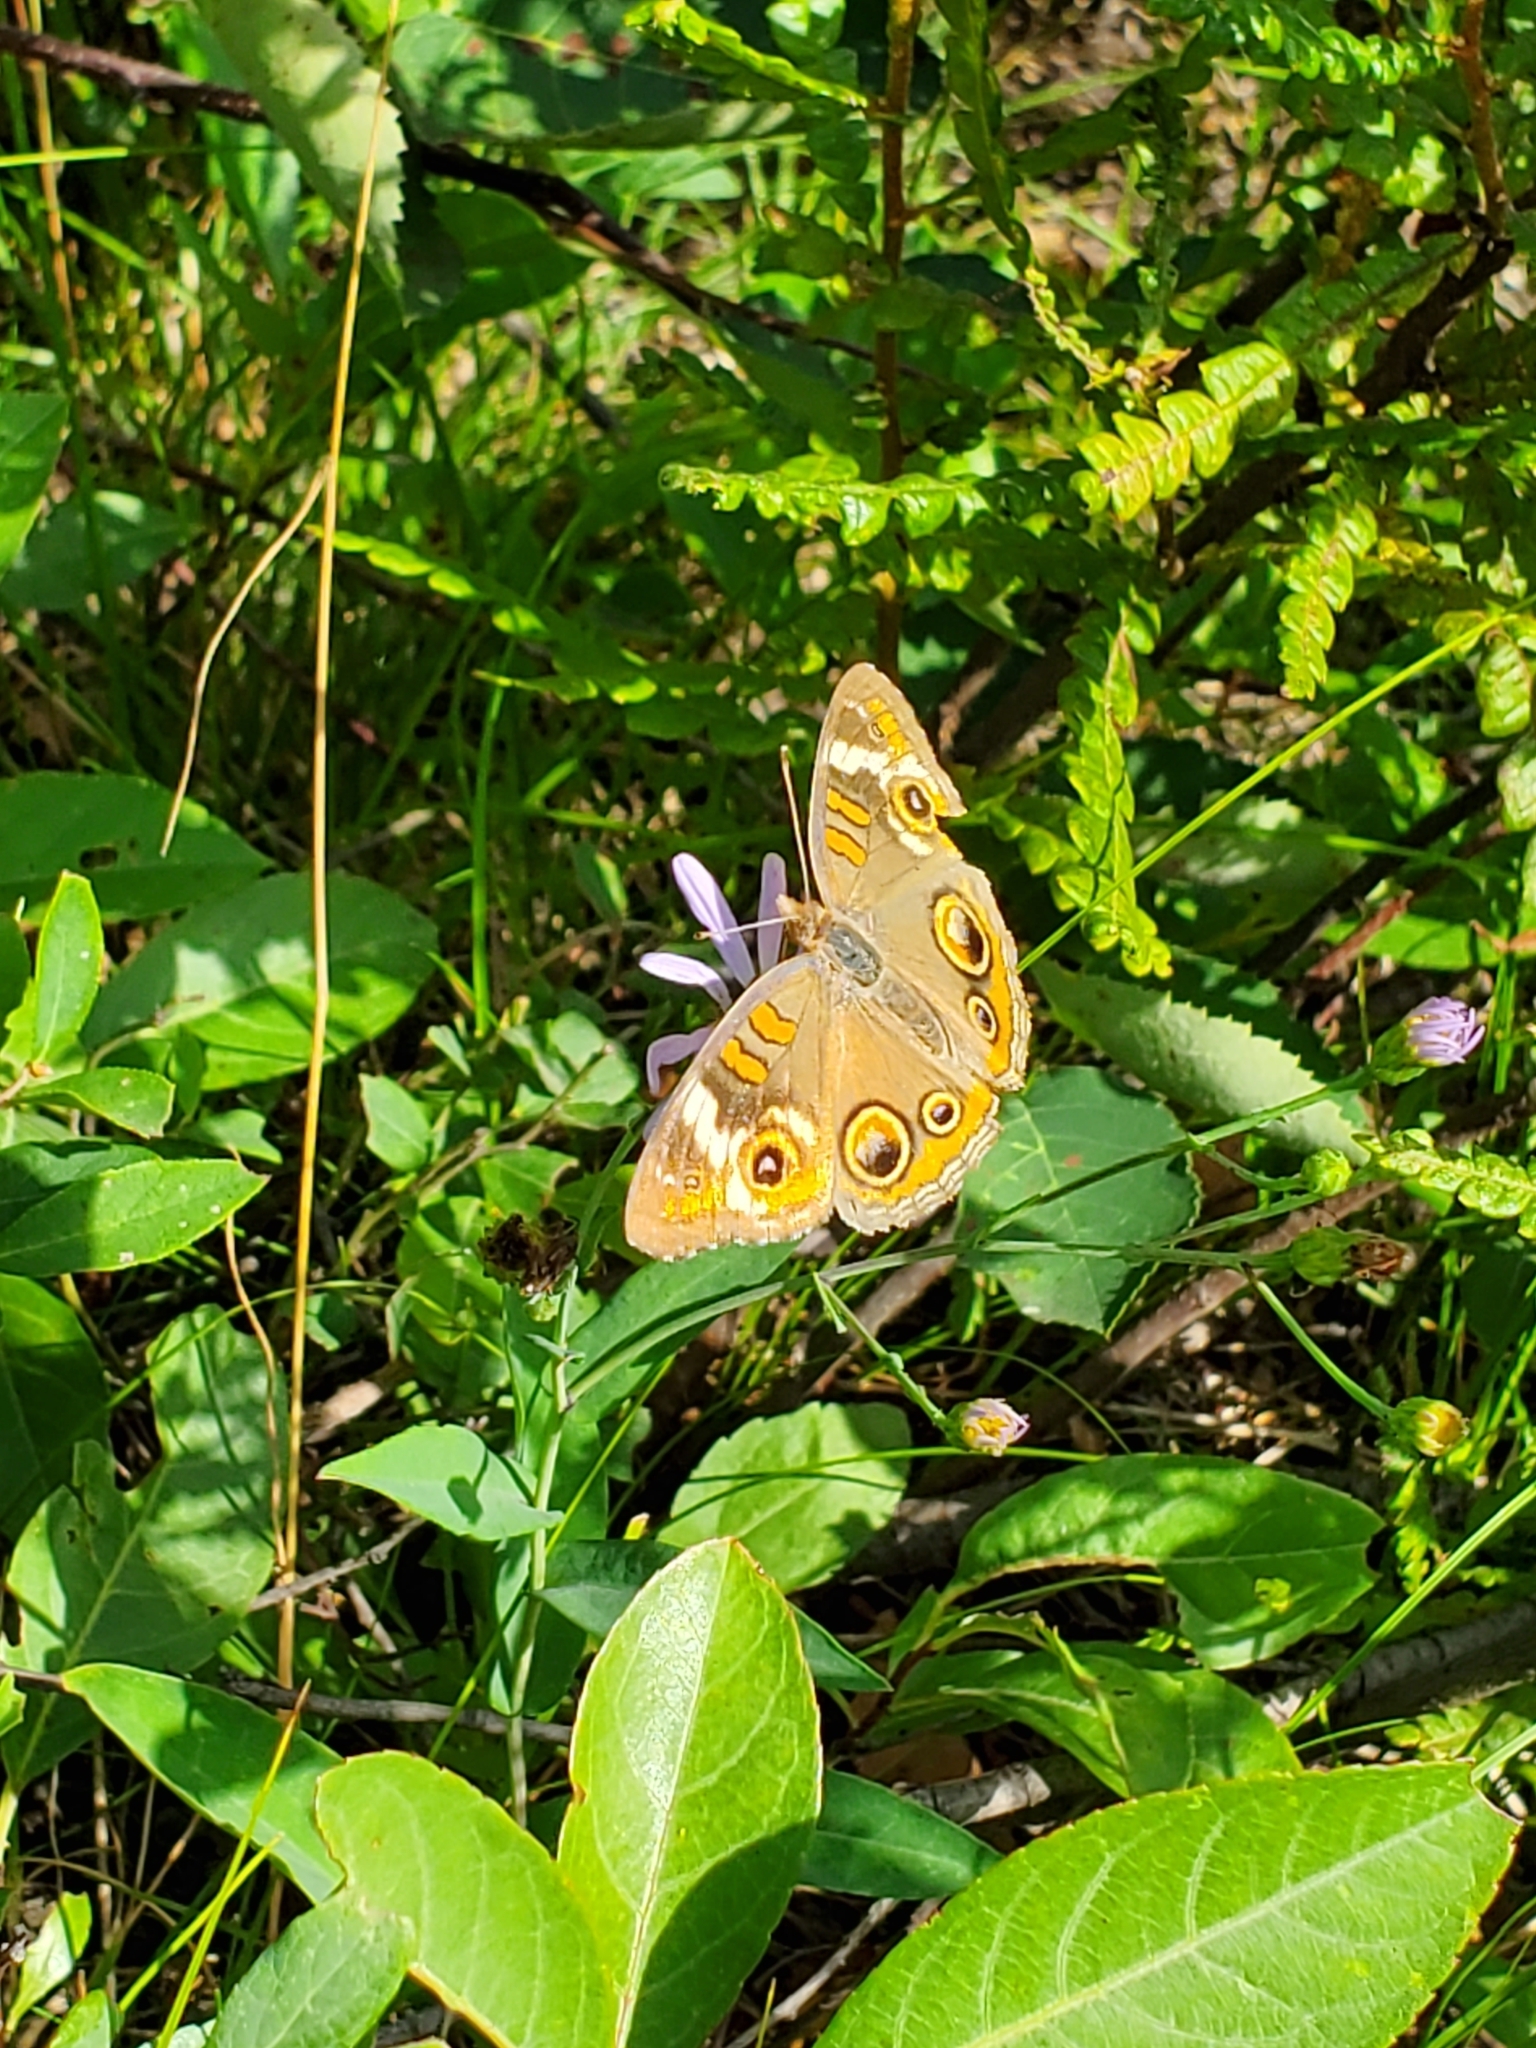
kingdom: Animalia
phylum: Arthropoda
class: Insecta
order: Lepidoptera
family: Nymphalidae
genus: Junonia
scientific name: Junonia coenia
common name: Common buckeye
